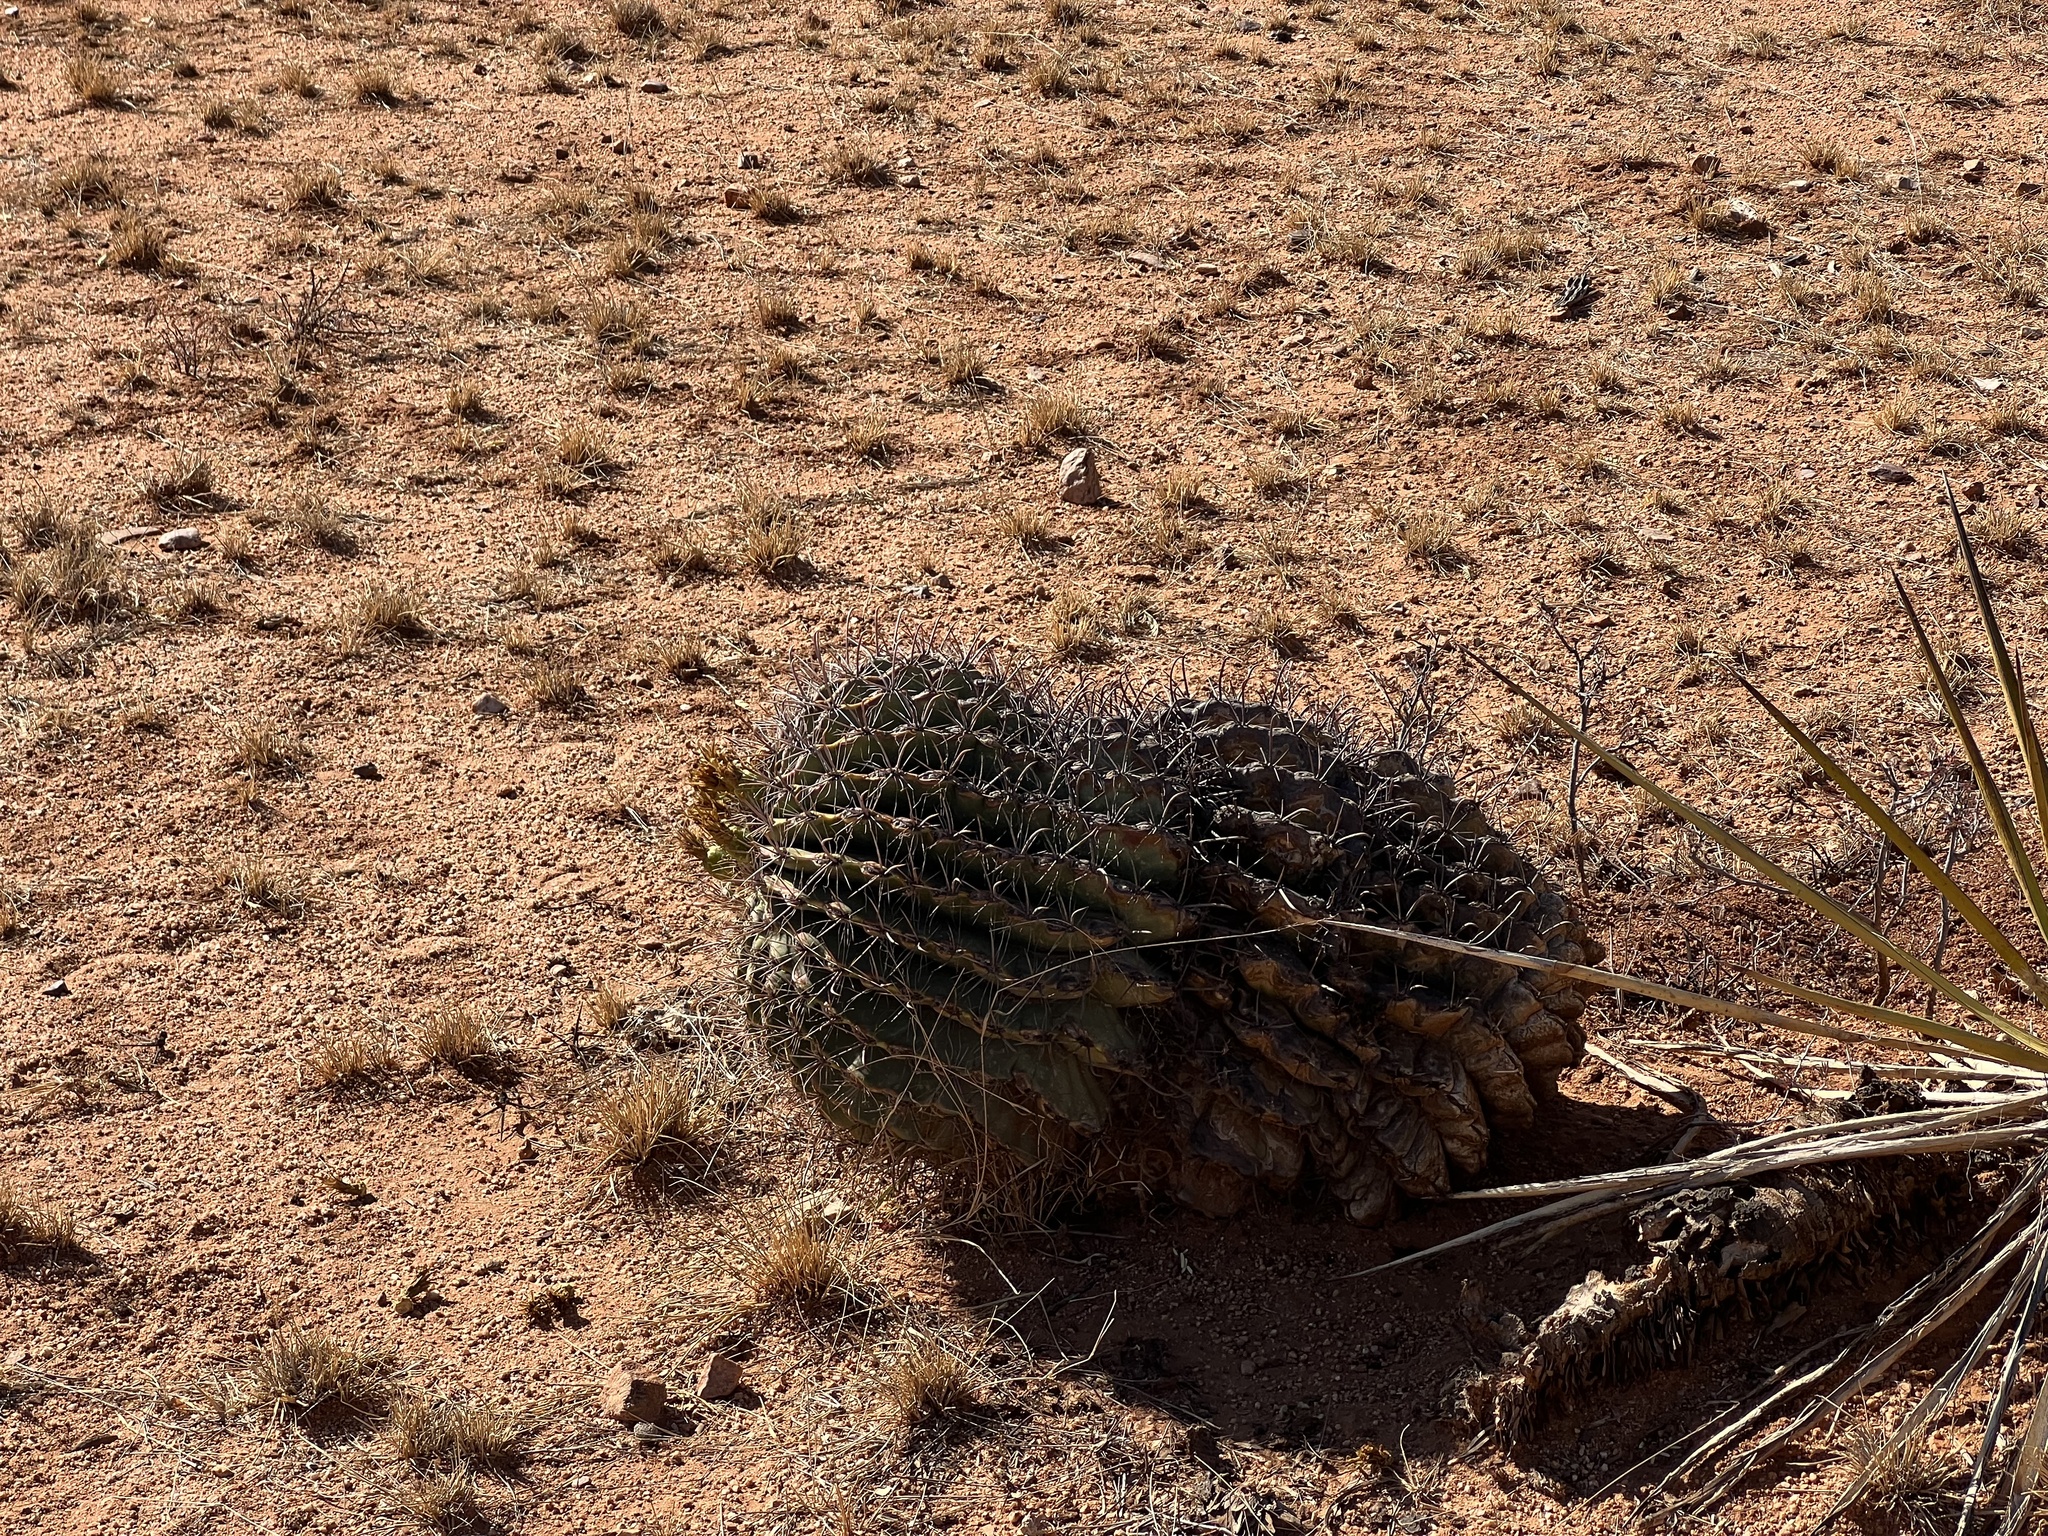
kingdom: Plantae
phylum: Tracheophyta
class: Magnoliopsida
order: Caryophyllales
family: Cactaceae
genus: Ferocactus
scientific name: Ferocactus wislizeni
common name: Candy barrel cactus
